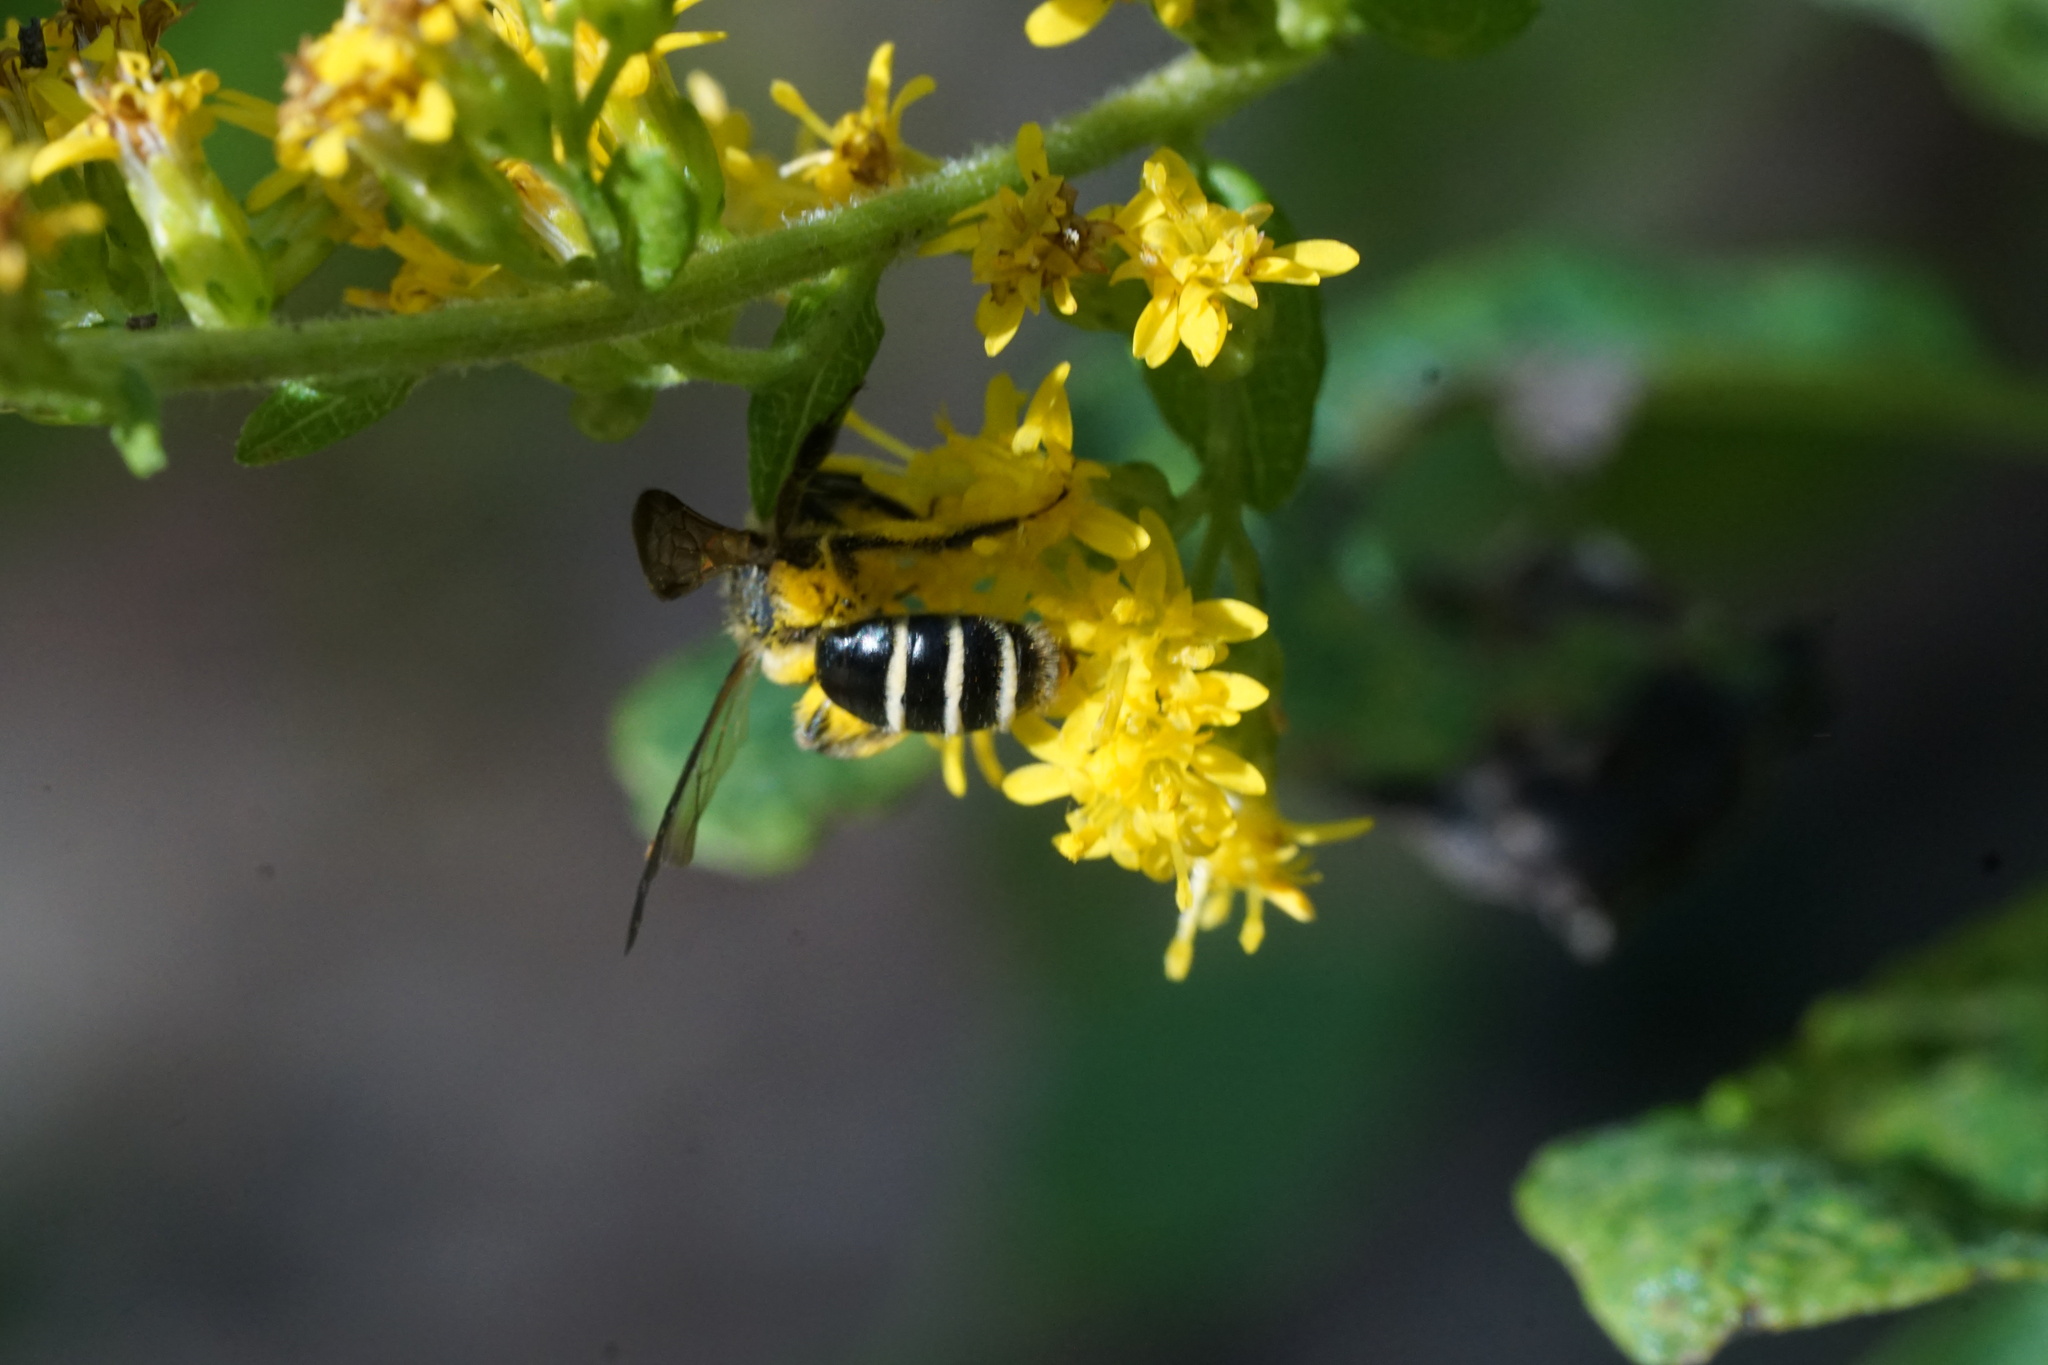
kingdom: Animalia
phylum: Arthropoda
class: Insecta
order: Hymenoptera
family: Andrenidae
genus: Andrena
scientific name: Andrena nubecula
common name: Cloudy-winged mining bee
